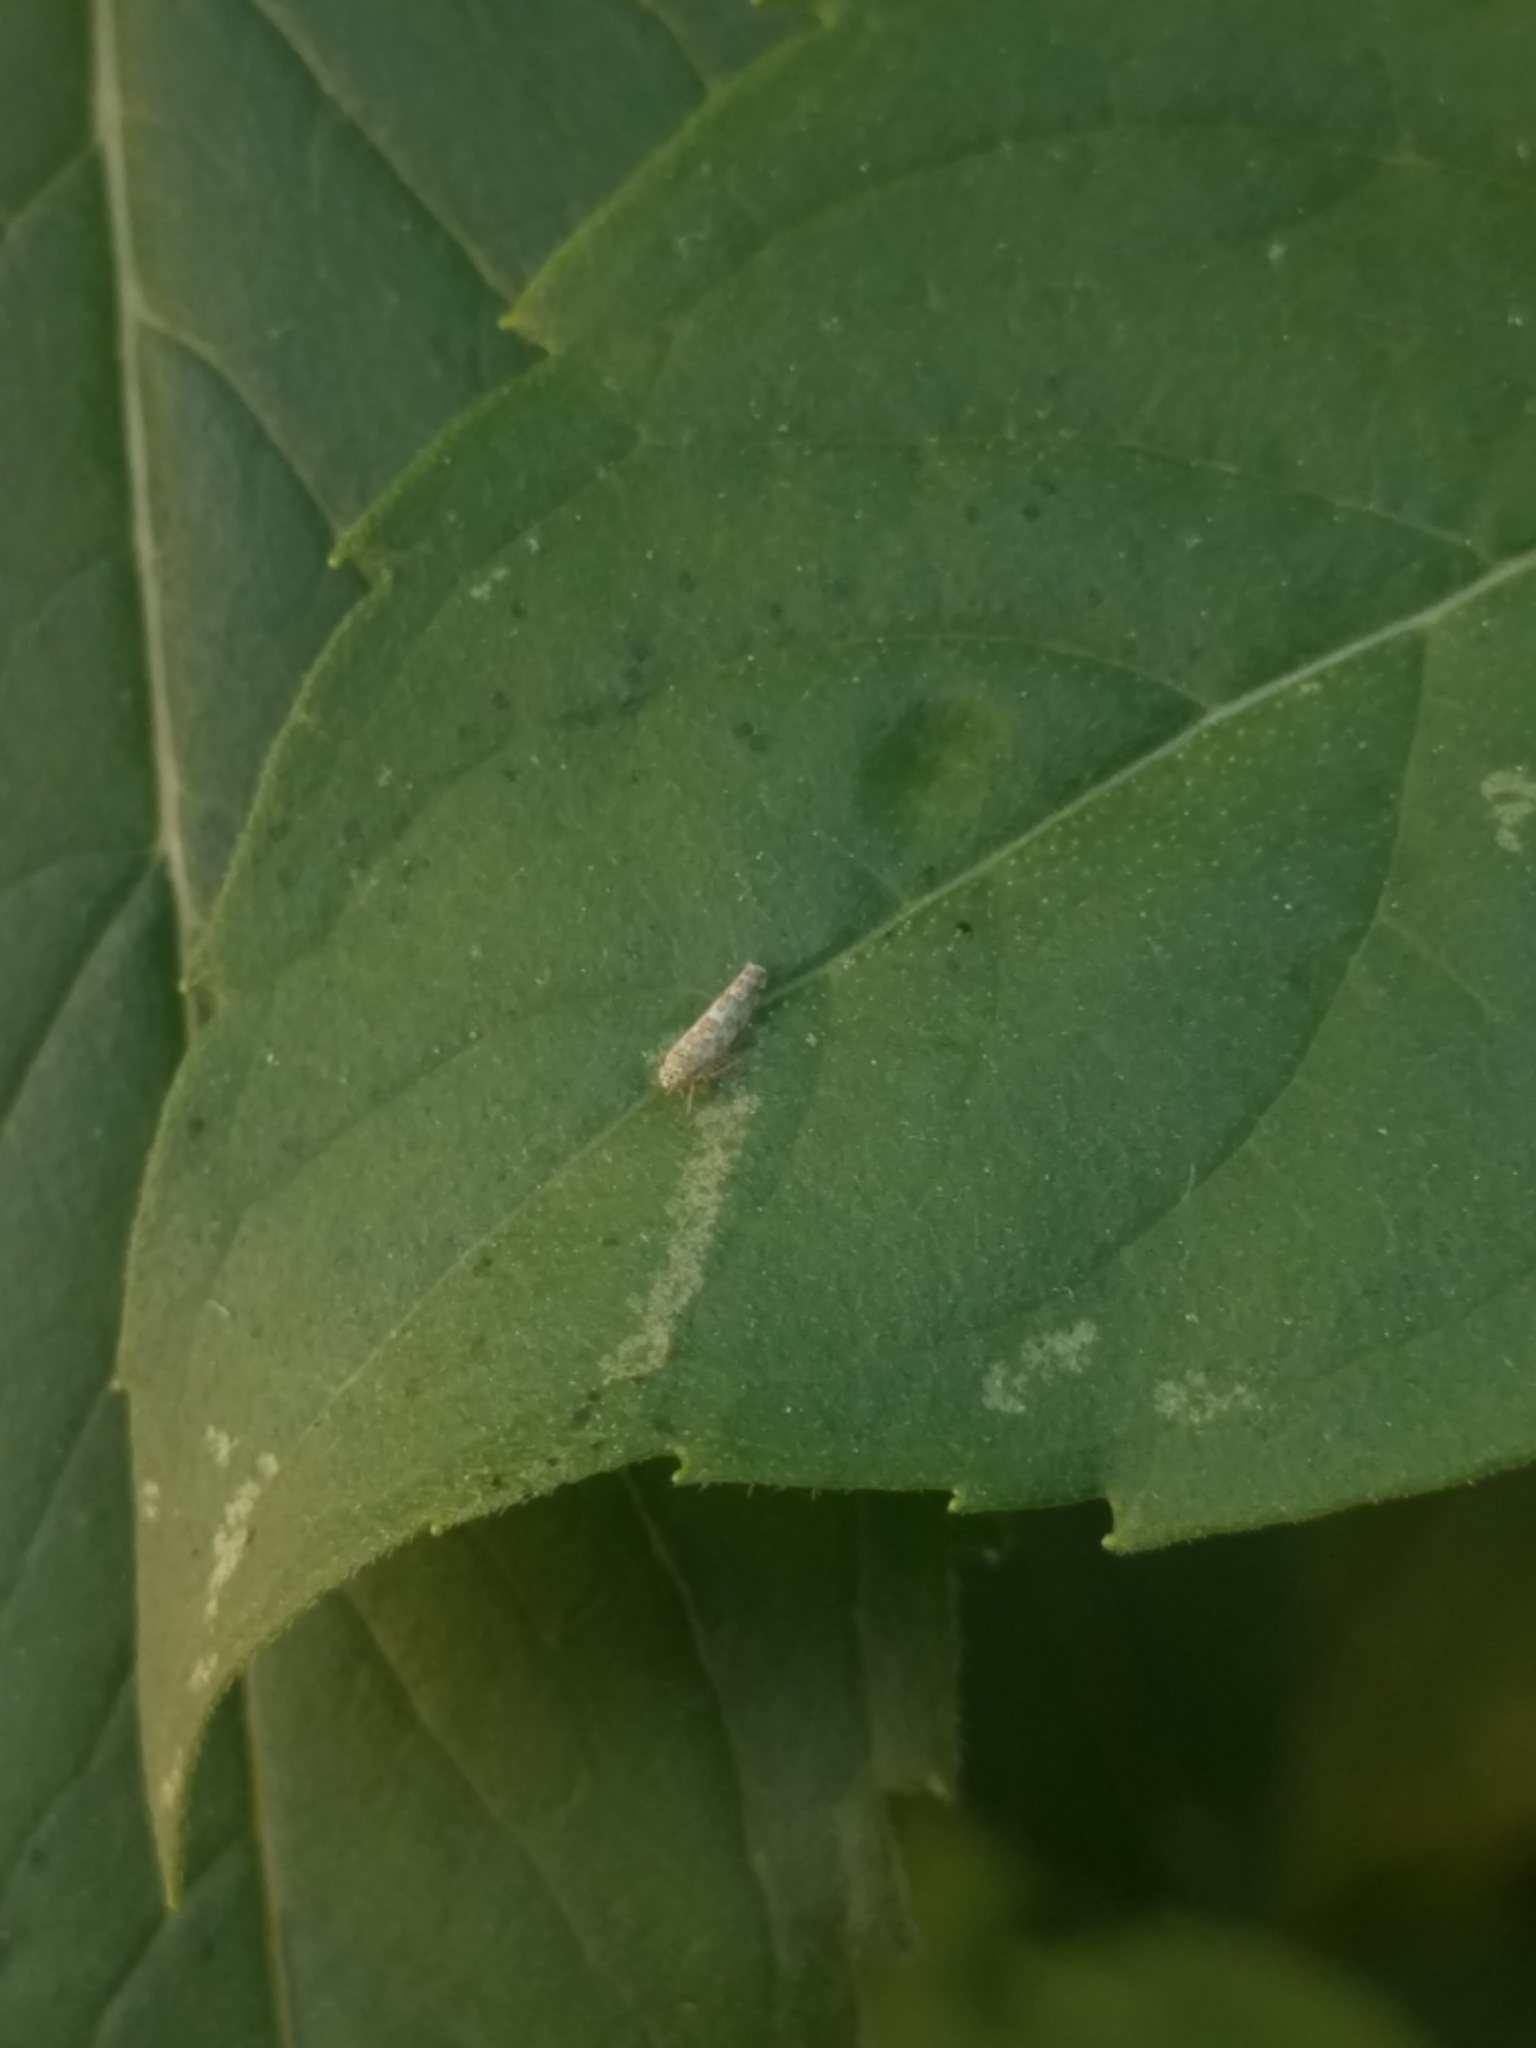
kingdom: Animalia
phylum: Arthropoda
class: Insecta
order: Hemiptera
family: Cicadellidae
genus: Eupteryx
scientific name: Eupteryx decemnotata
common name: Ligurian leafhopper
